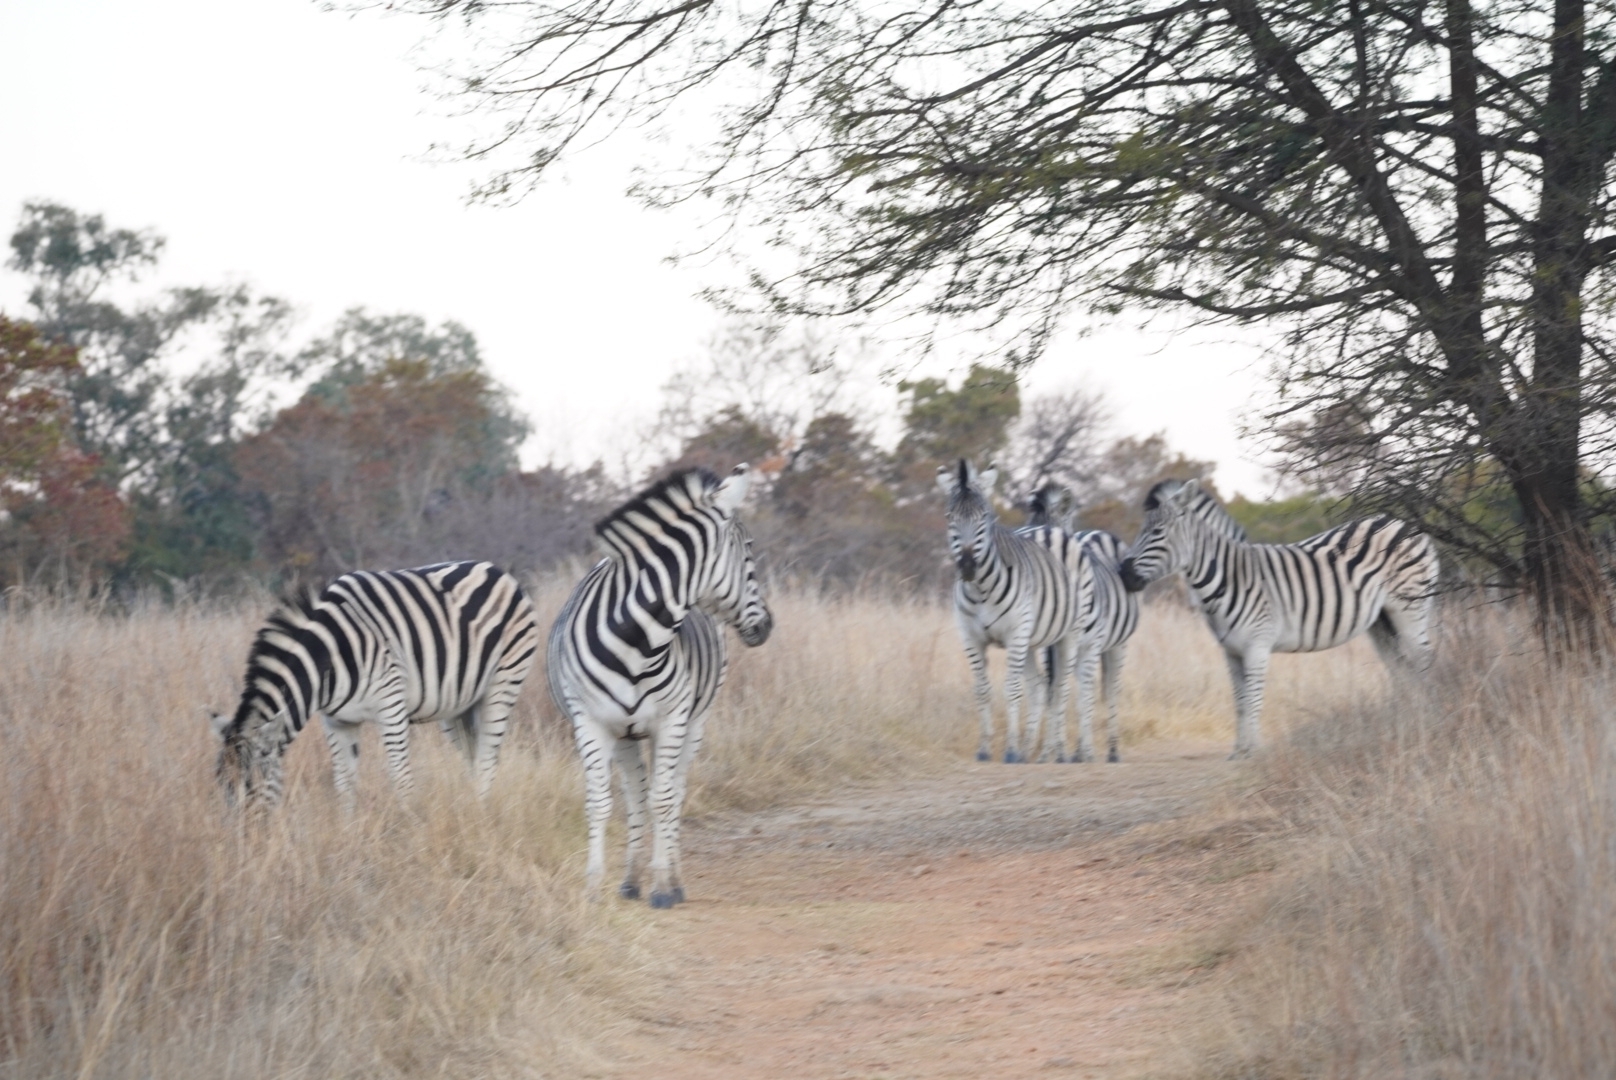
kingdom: Animalia
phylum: Chordata
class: Mammalia
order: Perissodactyla
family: Equidae
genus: Equus
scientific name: Equus quagga
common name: Plains zebra
